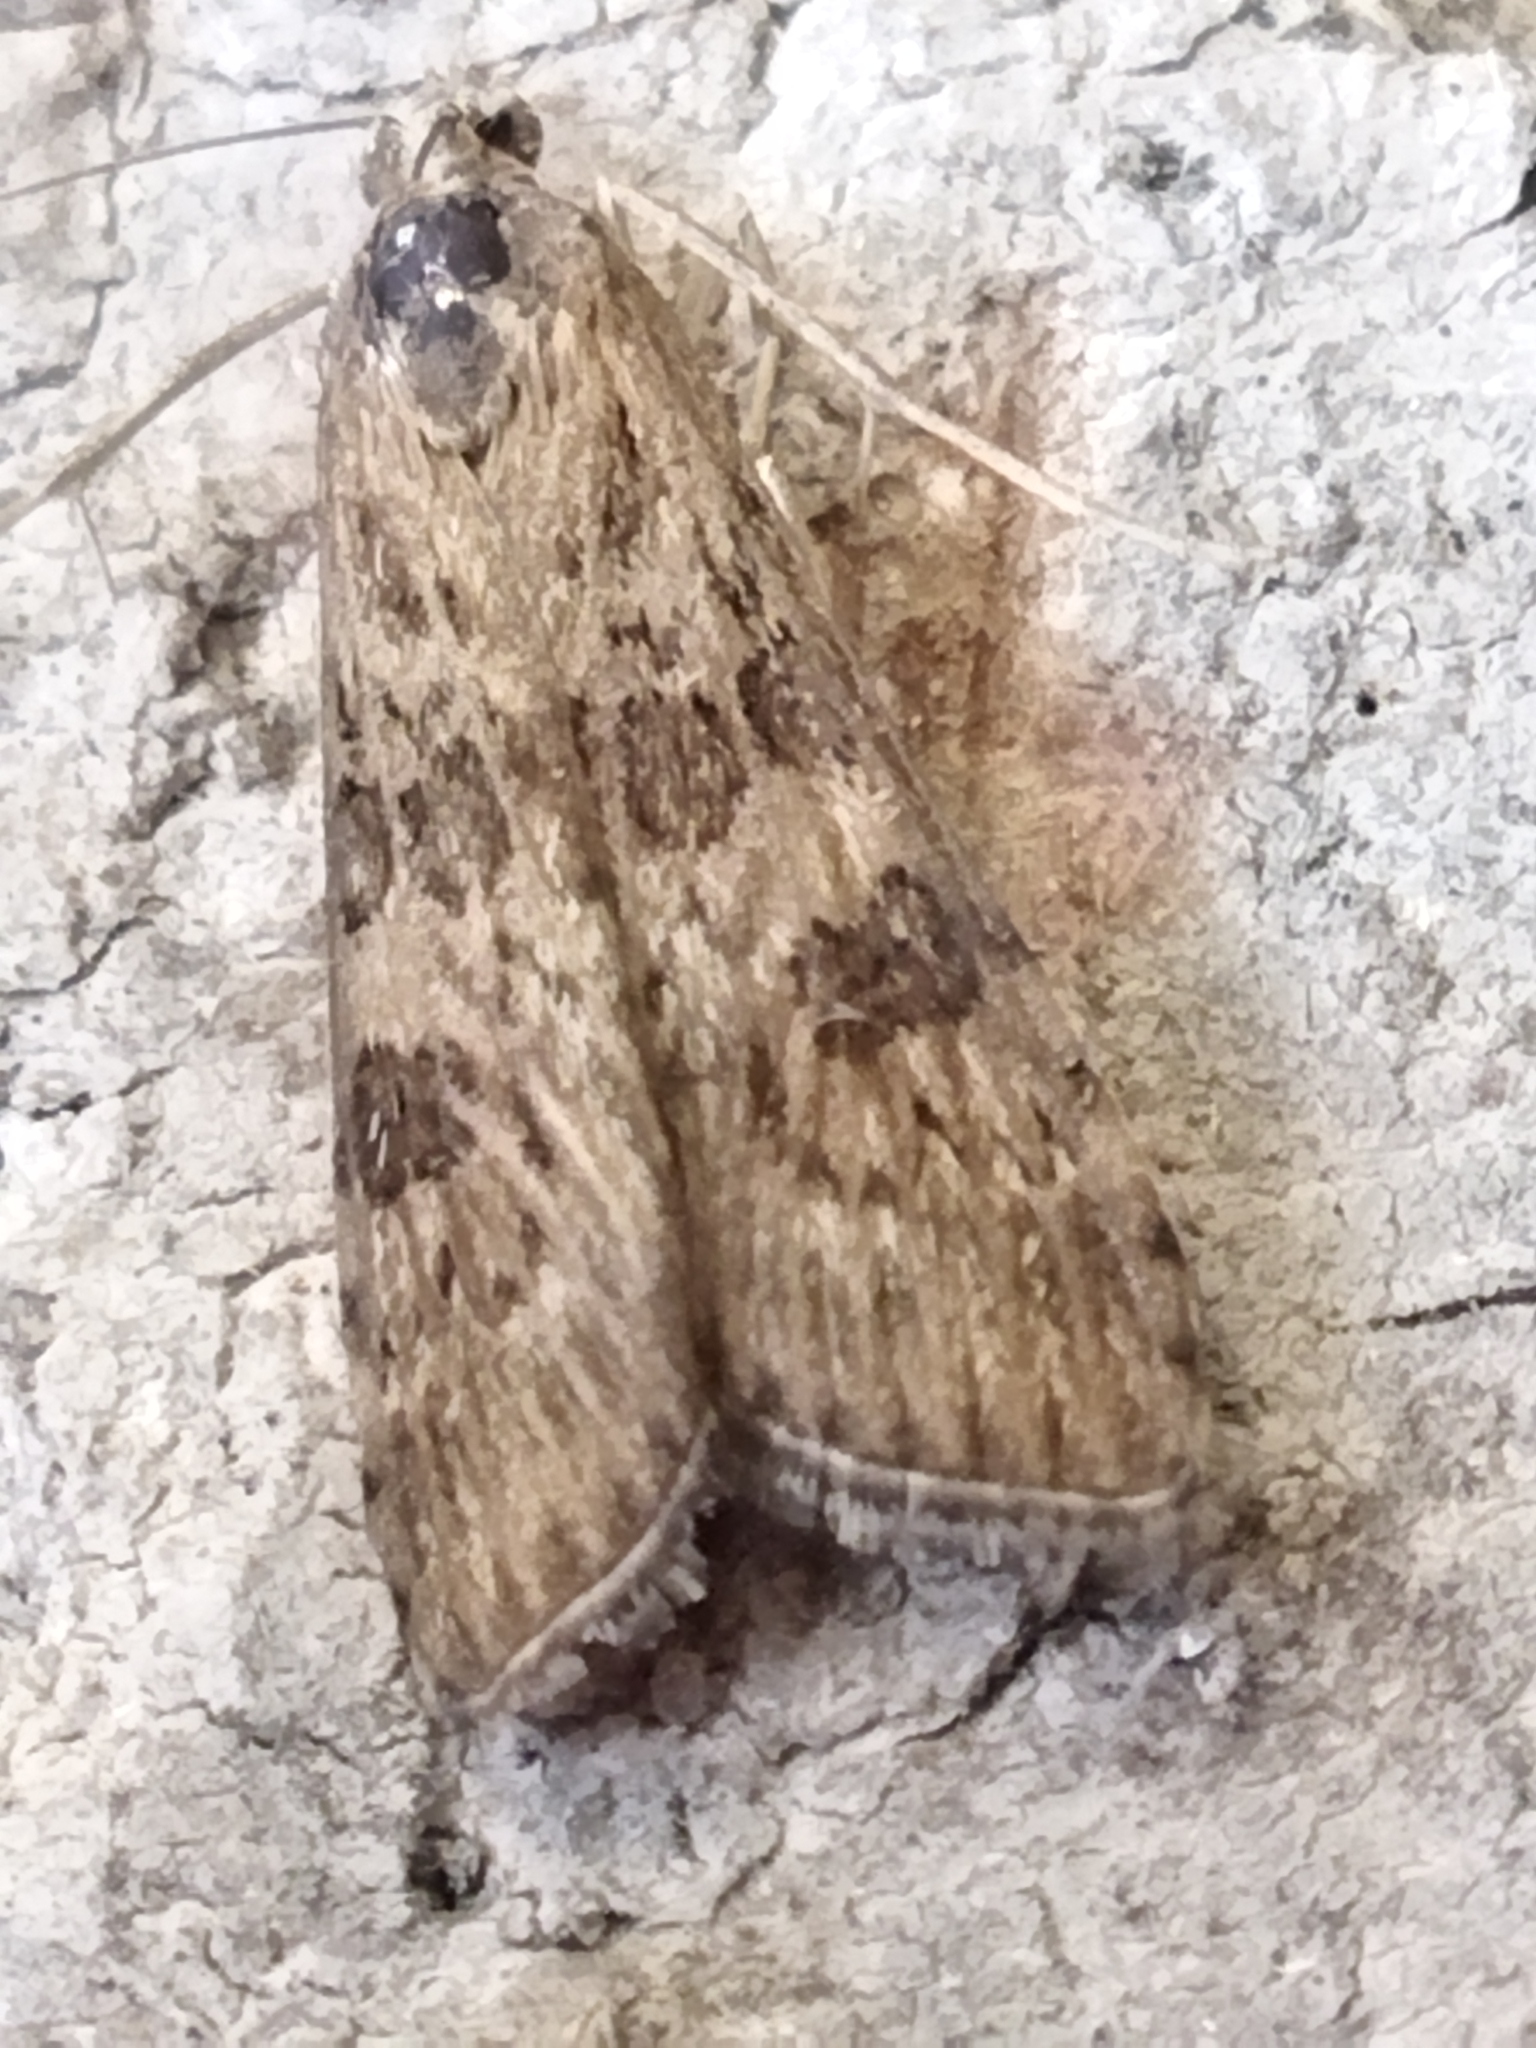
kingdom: Animalia
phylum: Arthropoda
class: Insecta
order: Lepidoptera
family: Crambidae
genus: Nomophila
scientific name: Nomophila noctuella
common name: Rush veneer
